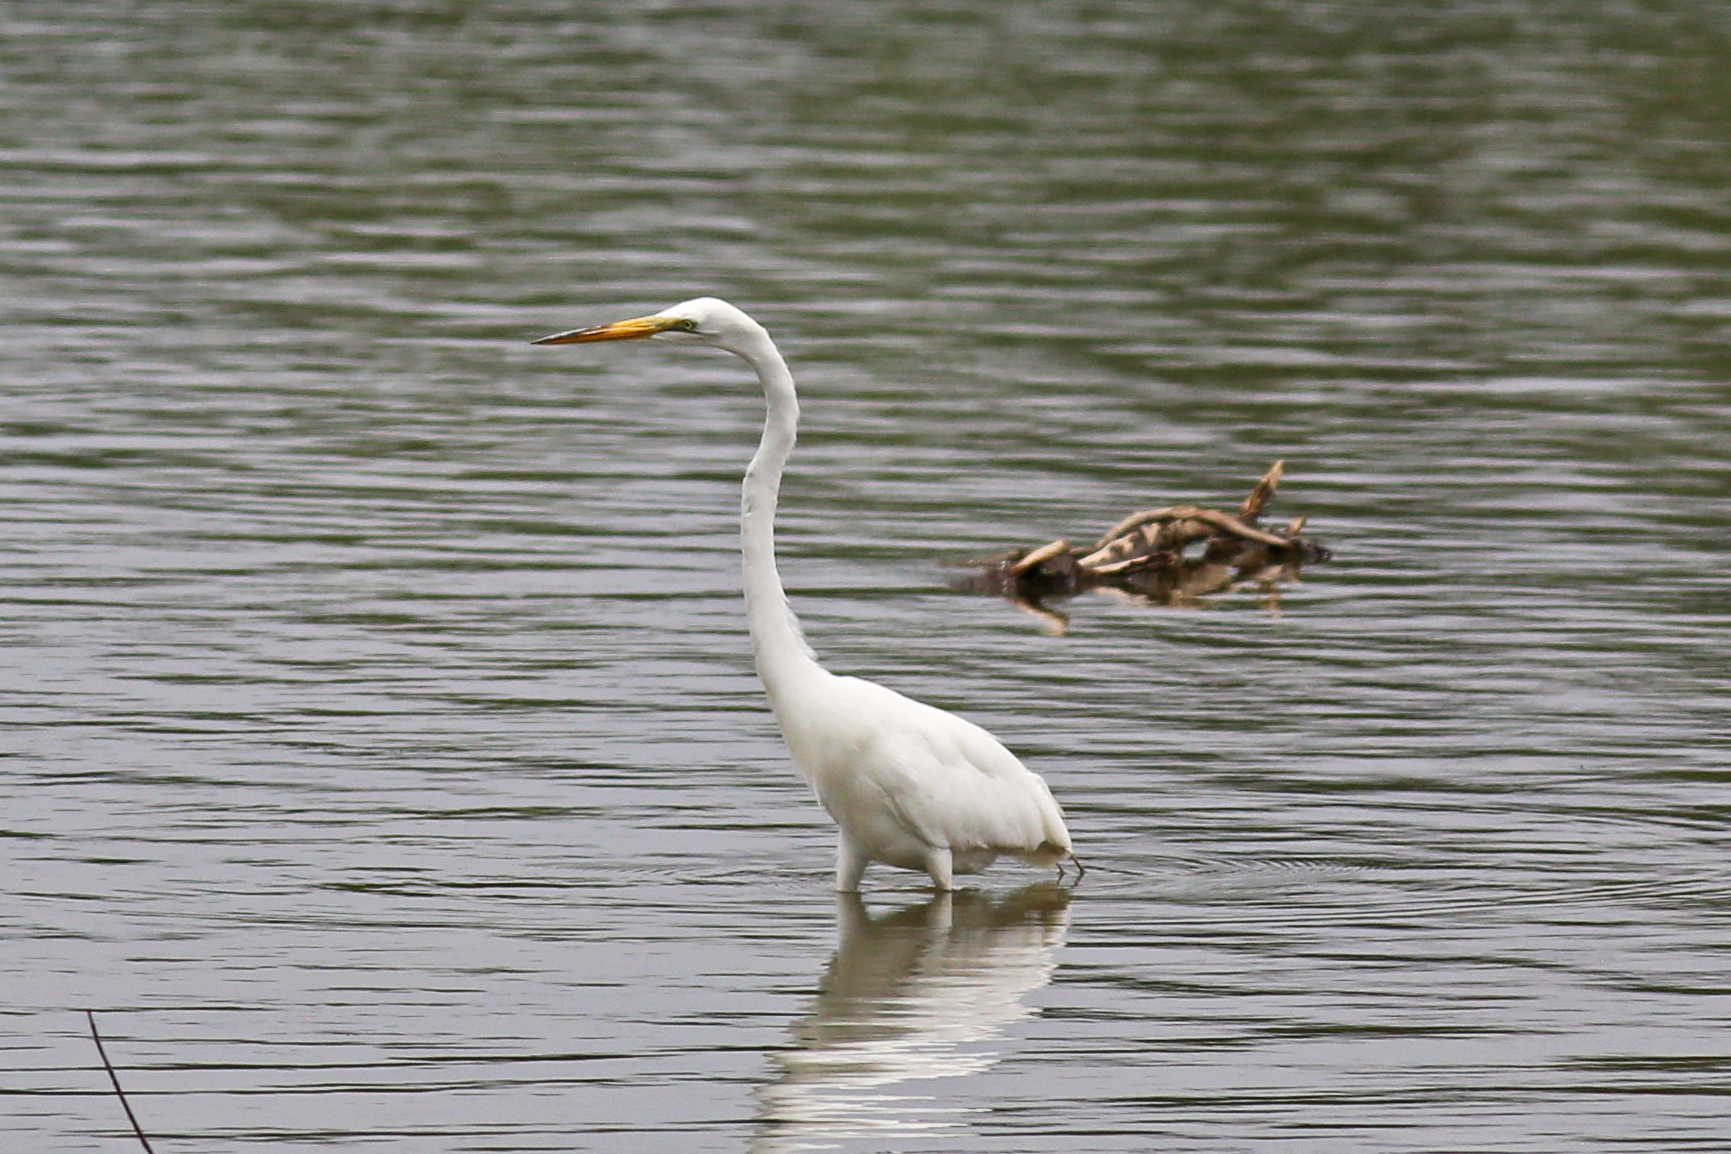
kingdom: Animalia
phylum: Chordata
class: Aves
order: Pelecaniformes
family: Ardeidae
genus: Ardea
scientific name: Ardea alba
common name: Great egret
